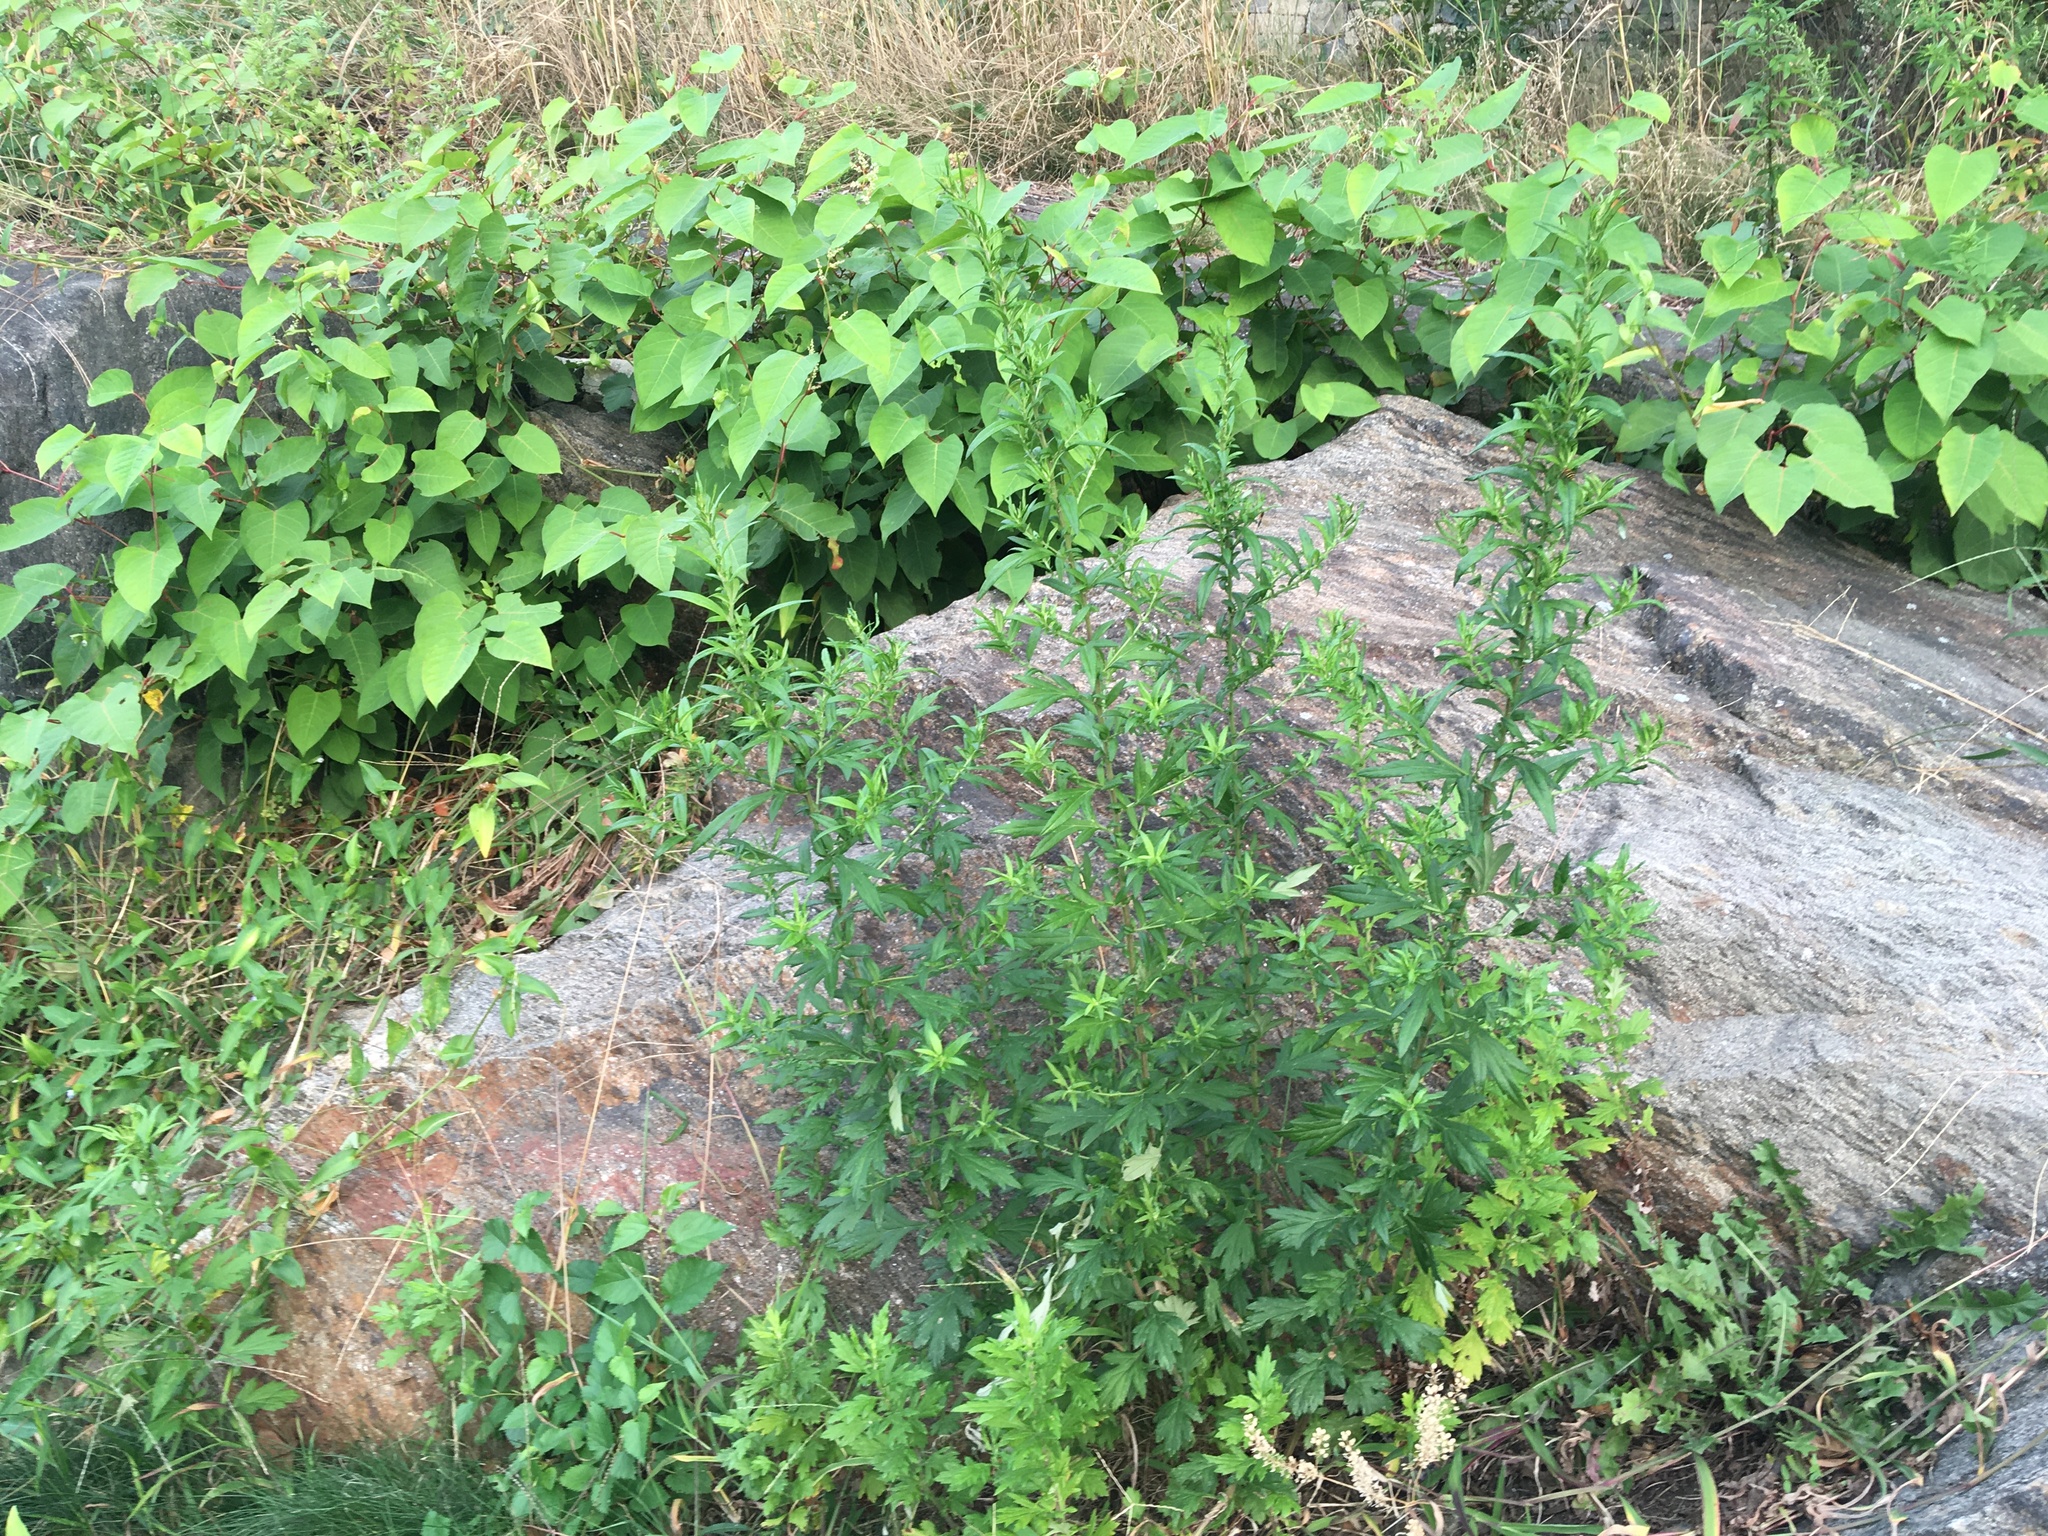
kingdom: Plantae
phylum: Tracheophyta
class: Magnoliopsida
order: Asterales
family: Asteraceae
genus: Artemisia
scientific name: Artemisia vulgaris
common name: Mugwort
